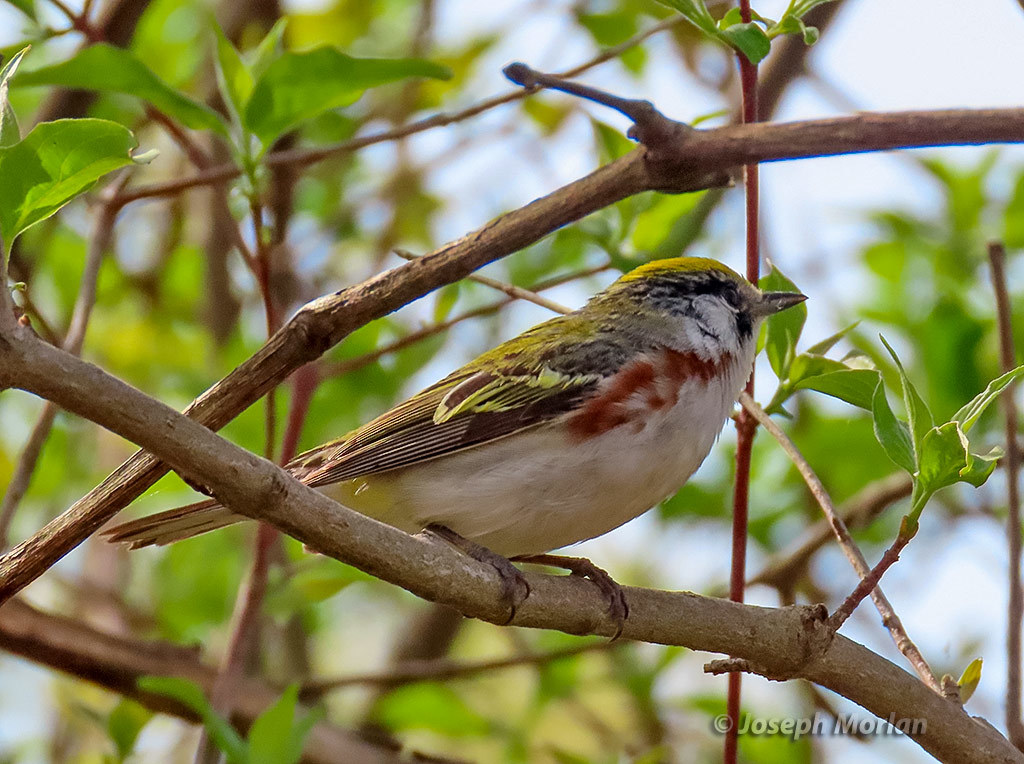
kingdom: Animalia
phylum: Chordata
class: Aves
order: Passeriformes
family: Parulidae
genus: Setophaga
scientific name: Setophaga pensylvanica
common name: Chestnut-sided warbler
